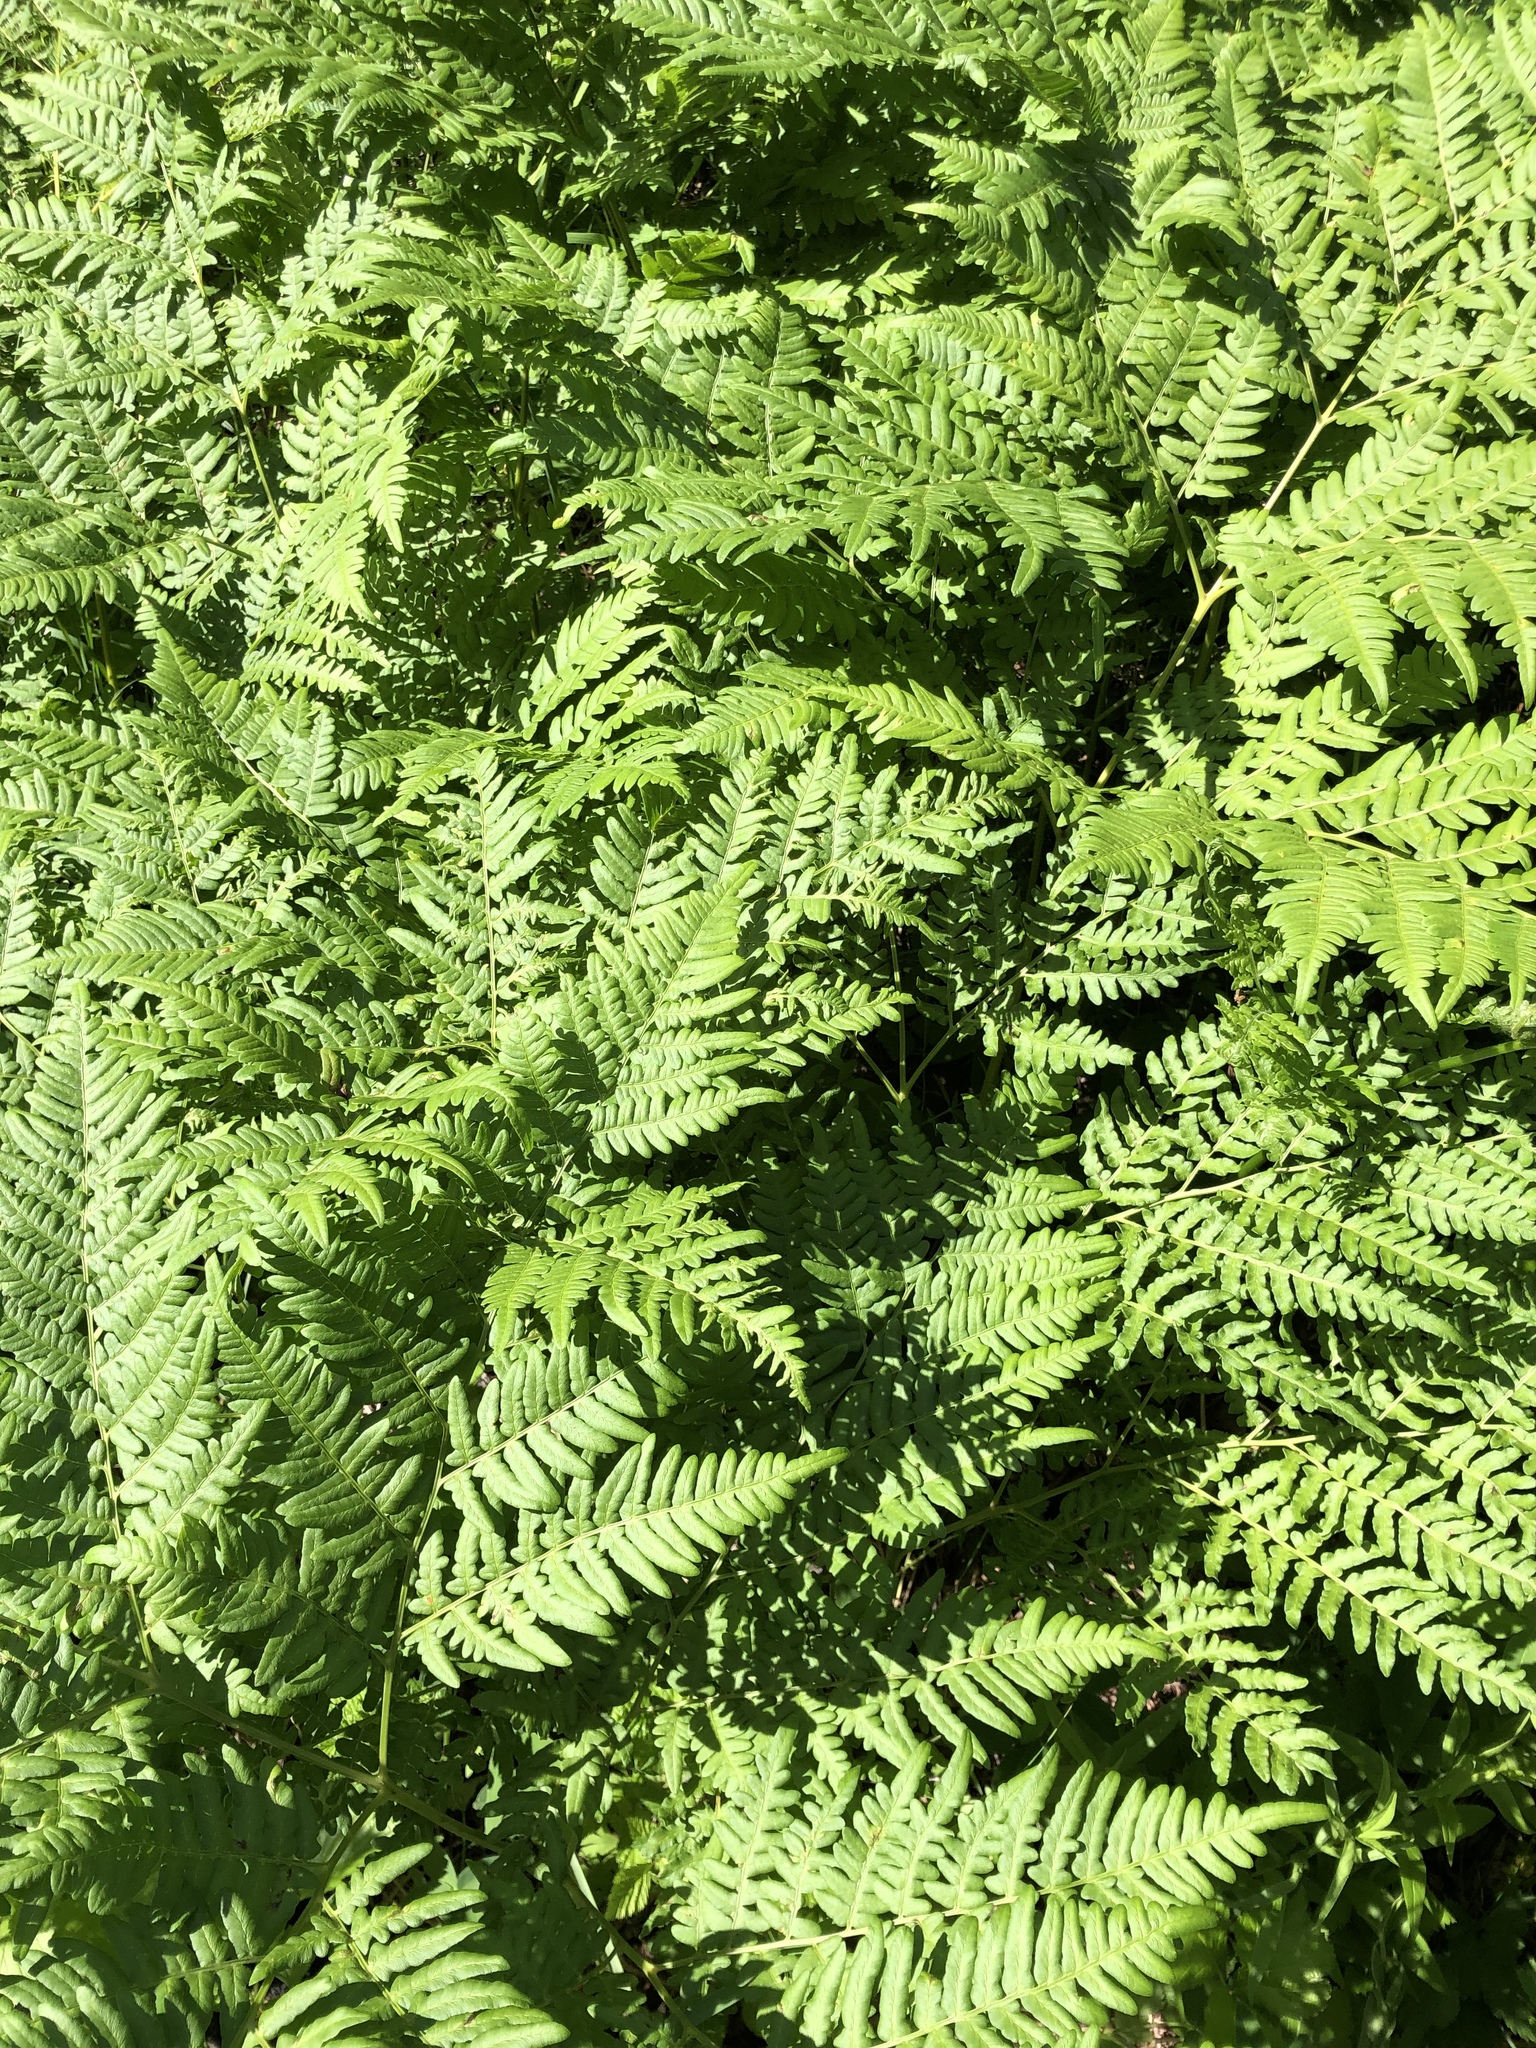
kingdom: Plantae
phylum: Tracheophyta
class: Polypodiopsida
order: Polypodiales
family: Dennstaedtiaceae
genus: Pteridium
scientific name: Pteridium aquilinum
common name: Bracken
